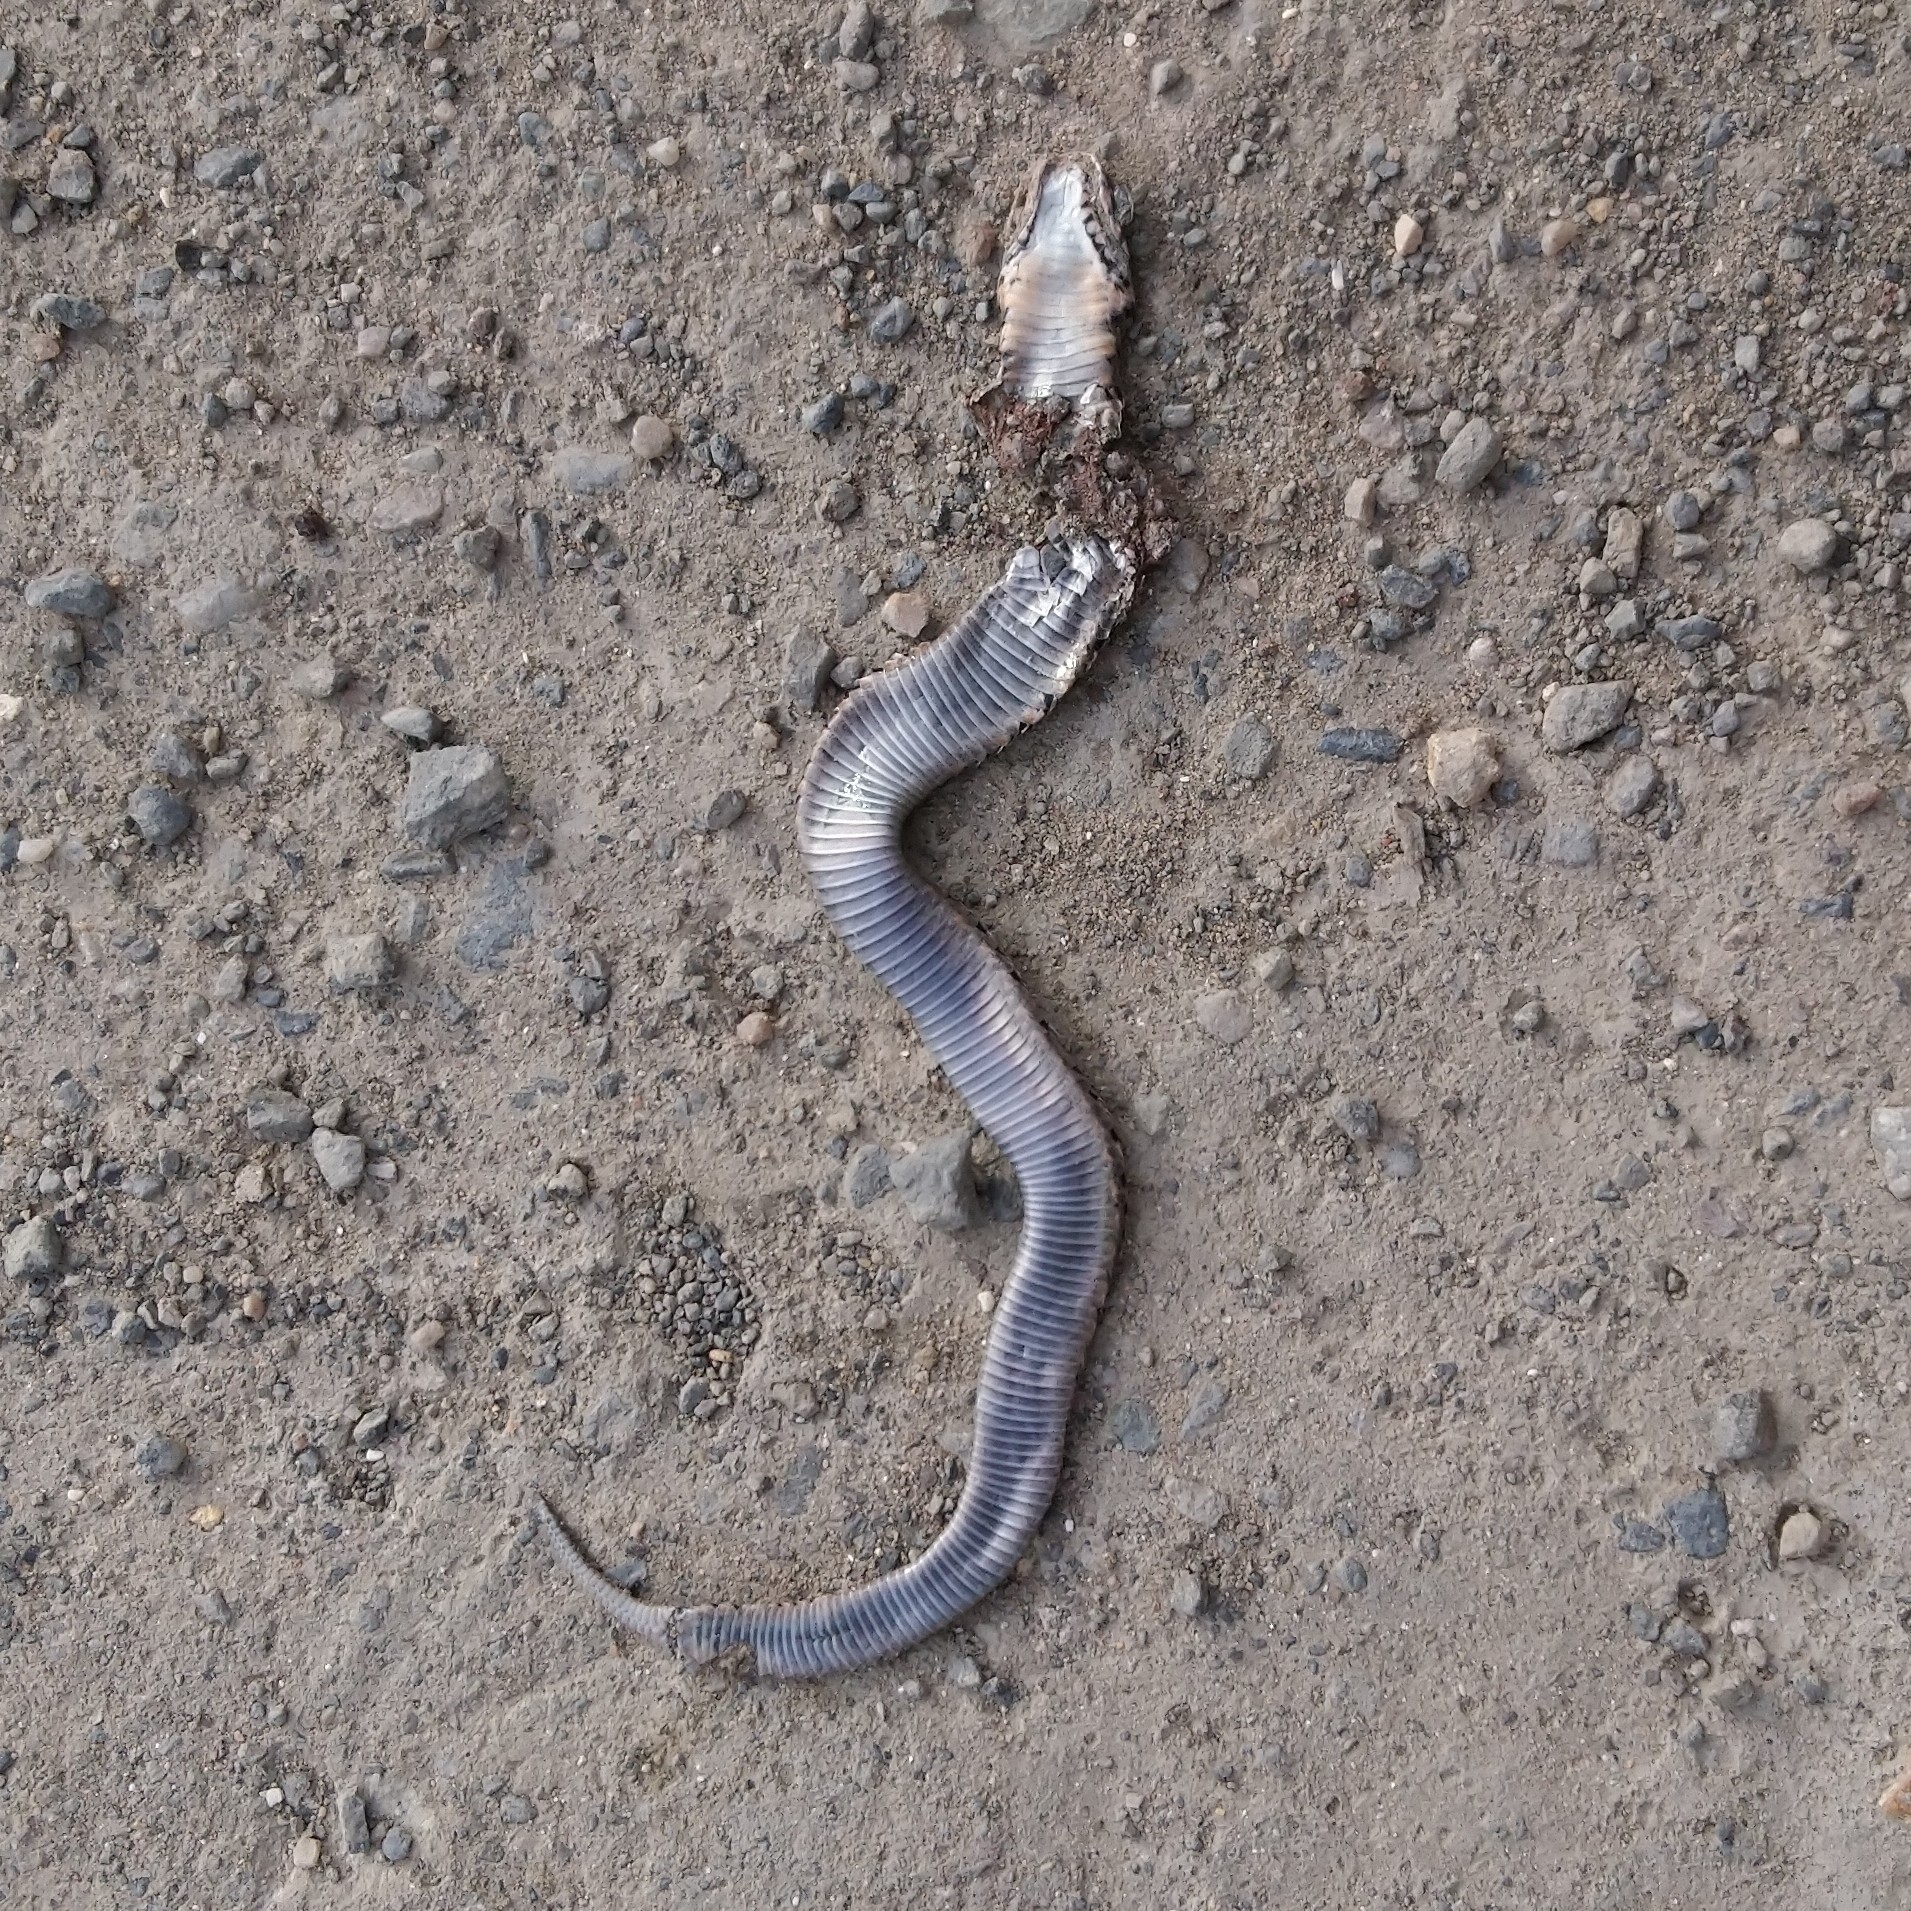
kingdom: Animalia
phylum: Chordata
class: Squamata
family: Viperidae
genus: Causus
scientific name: Causus rhombeatus
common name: Common night adder
